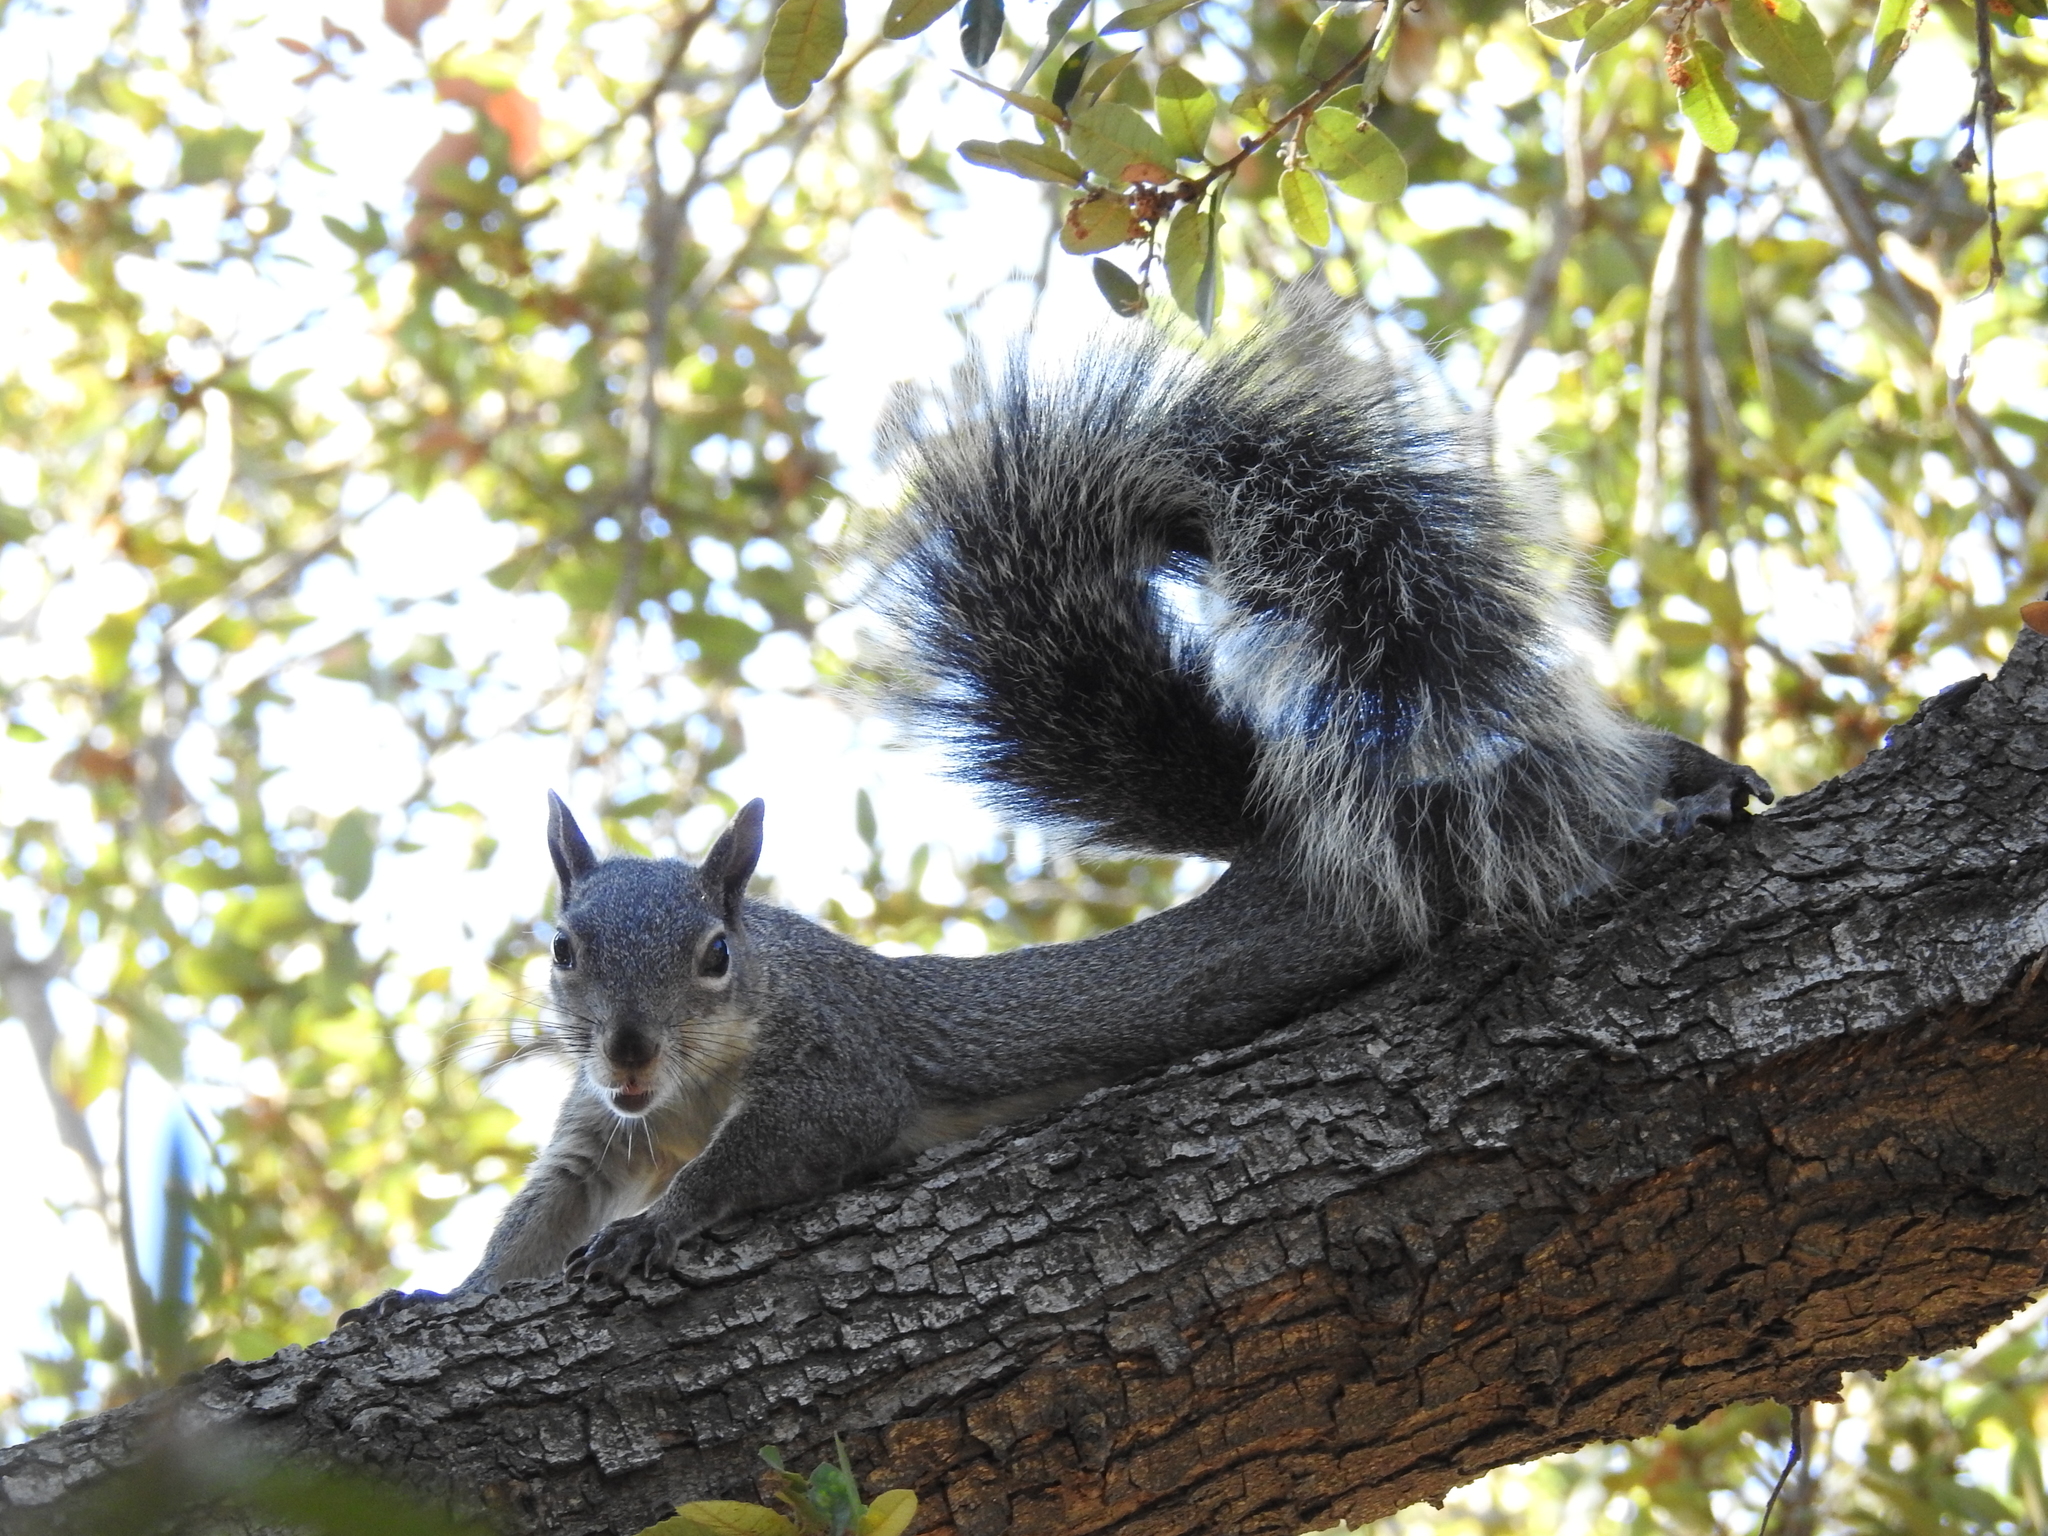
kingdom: Animalia
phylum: Chordata
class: Mammalia
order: Rodentia
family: Sciuridae
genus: Sciurus
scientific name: Sciurus griseus
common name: Western gray squirrel
